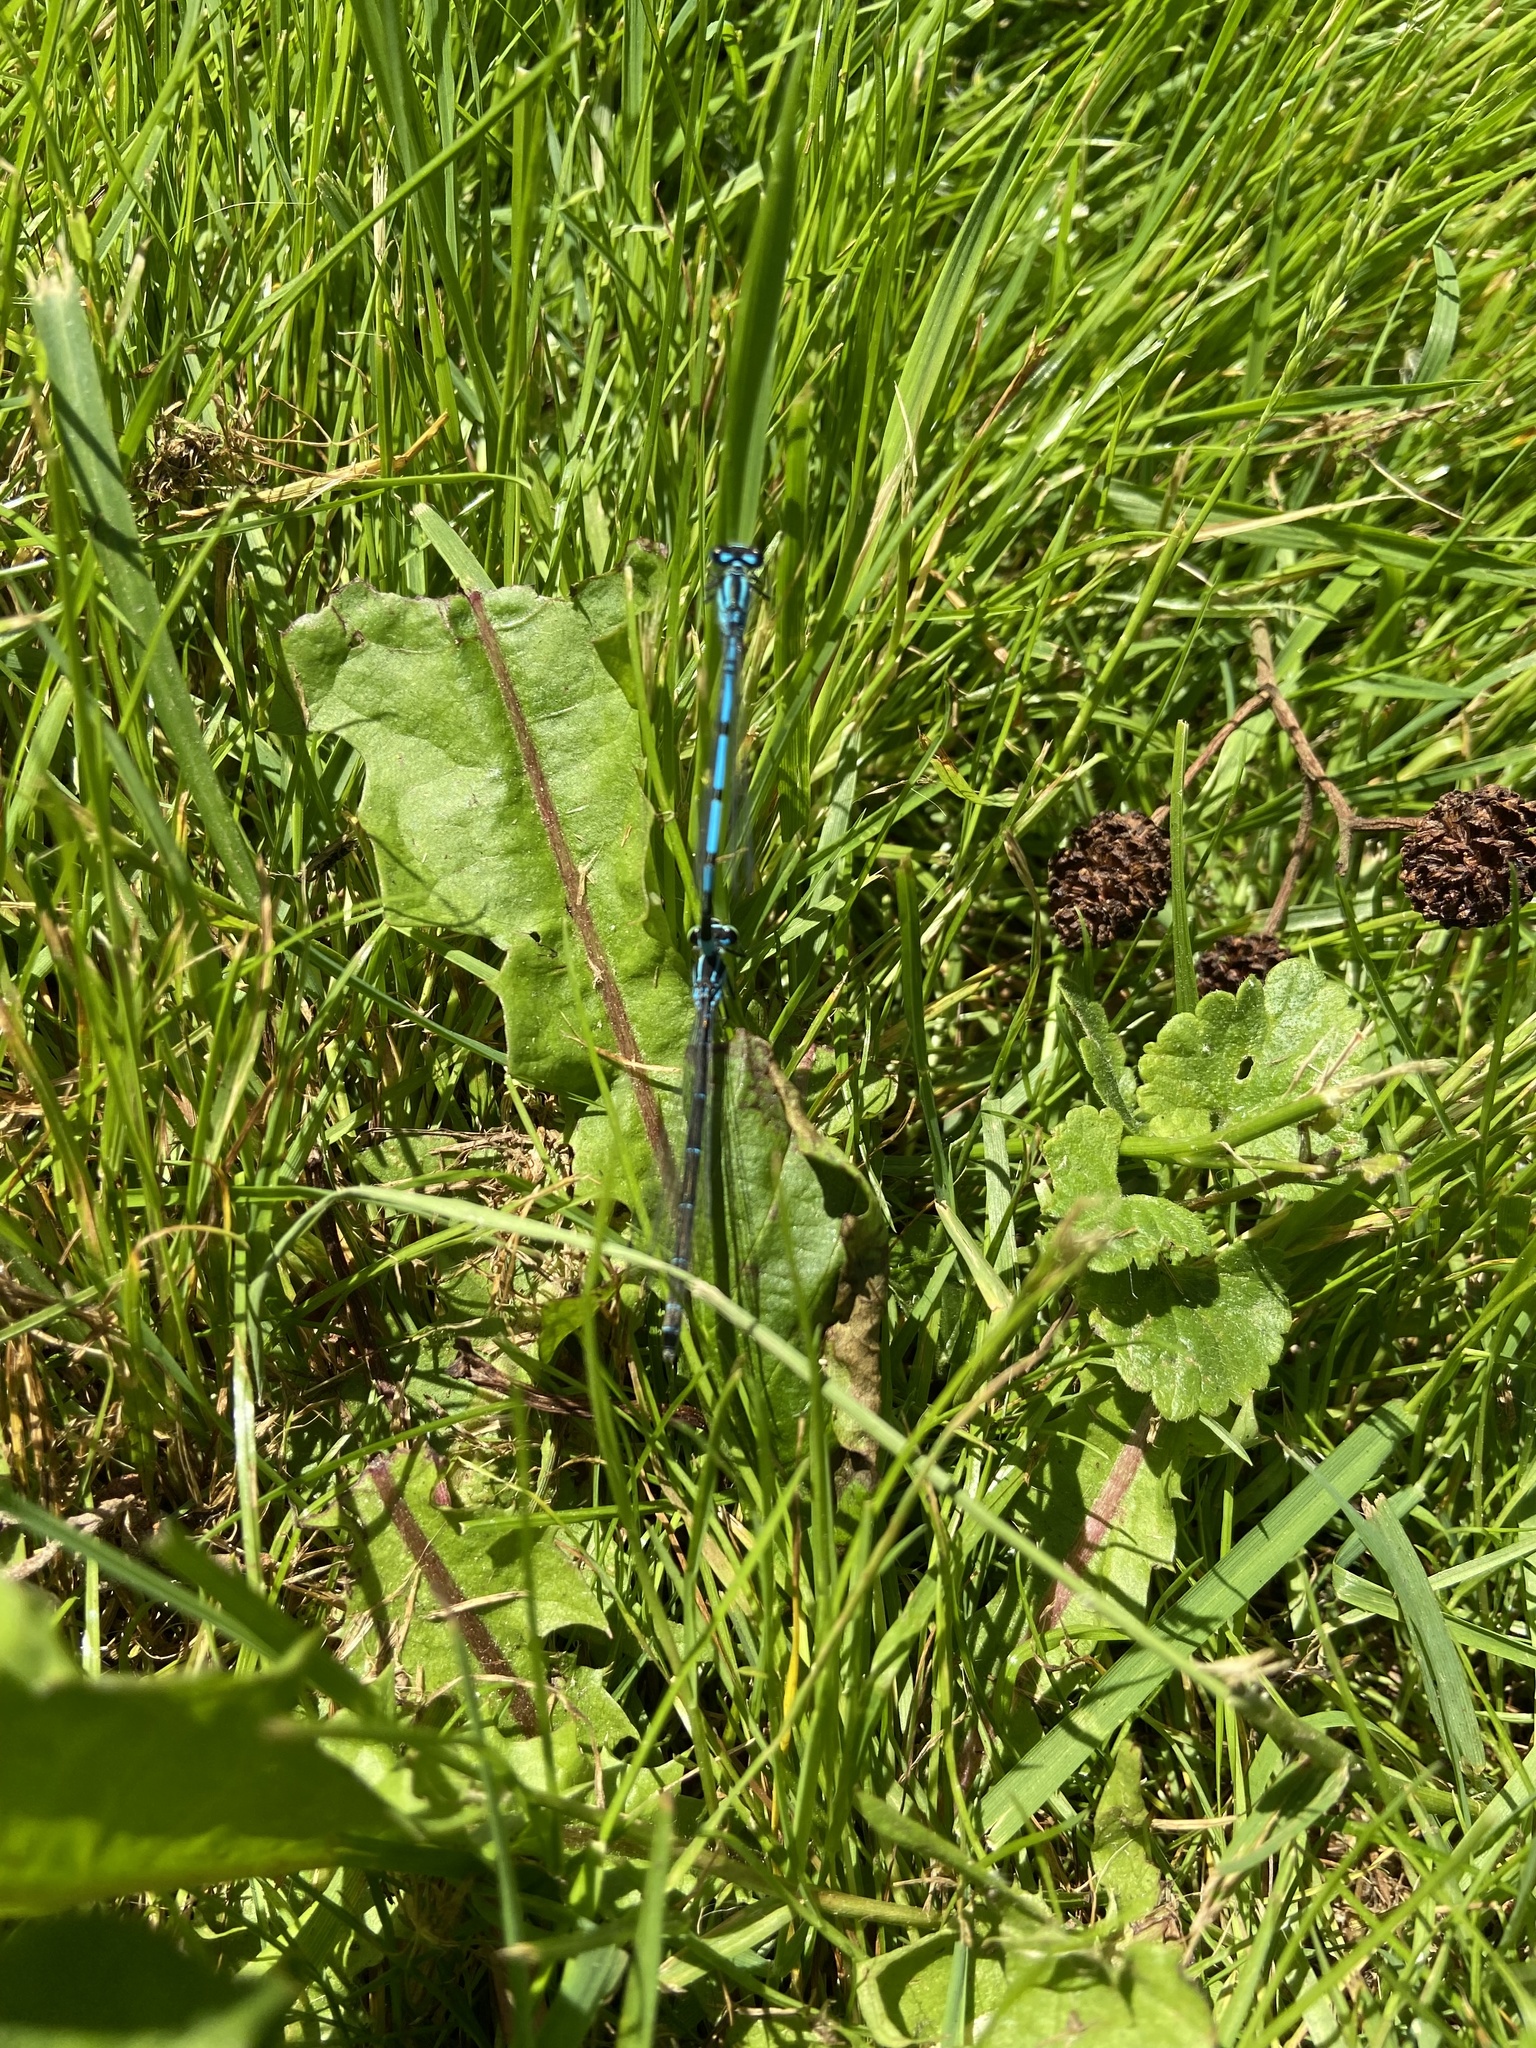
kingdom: Animalia
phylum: Arthropoda
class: Insecta
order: Odonata
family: Coenagrionidae
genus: Coenagrion
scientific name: Coenagrion puella
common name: Azure damselfly
